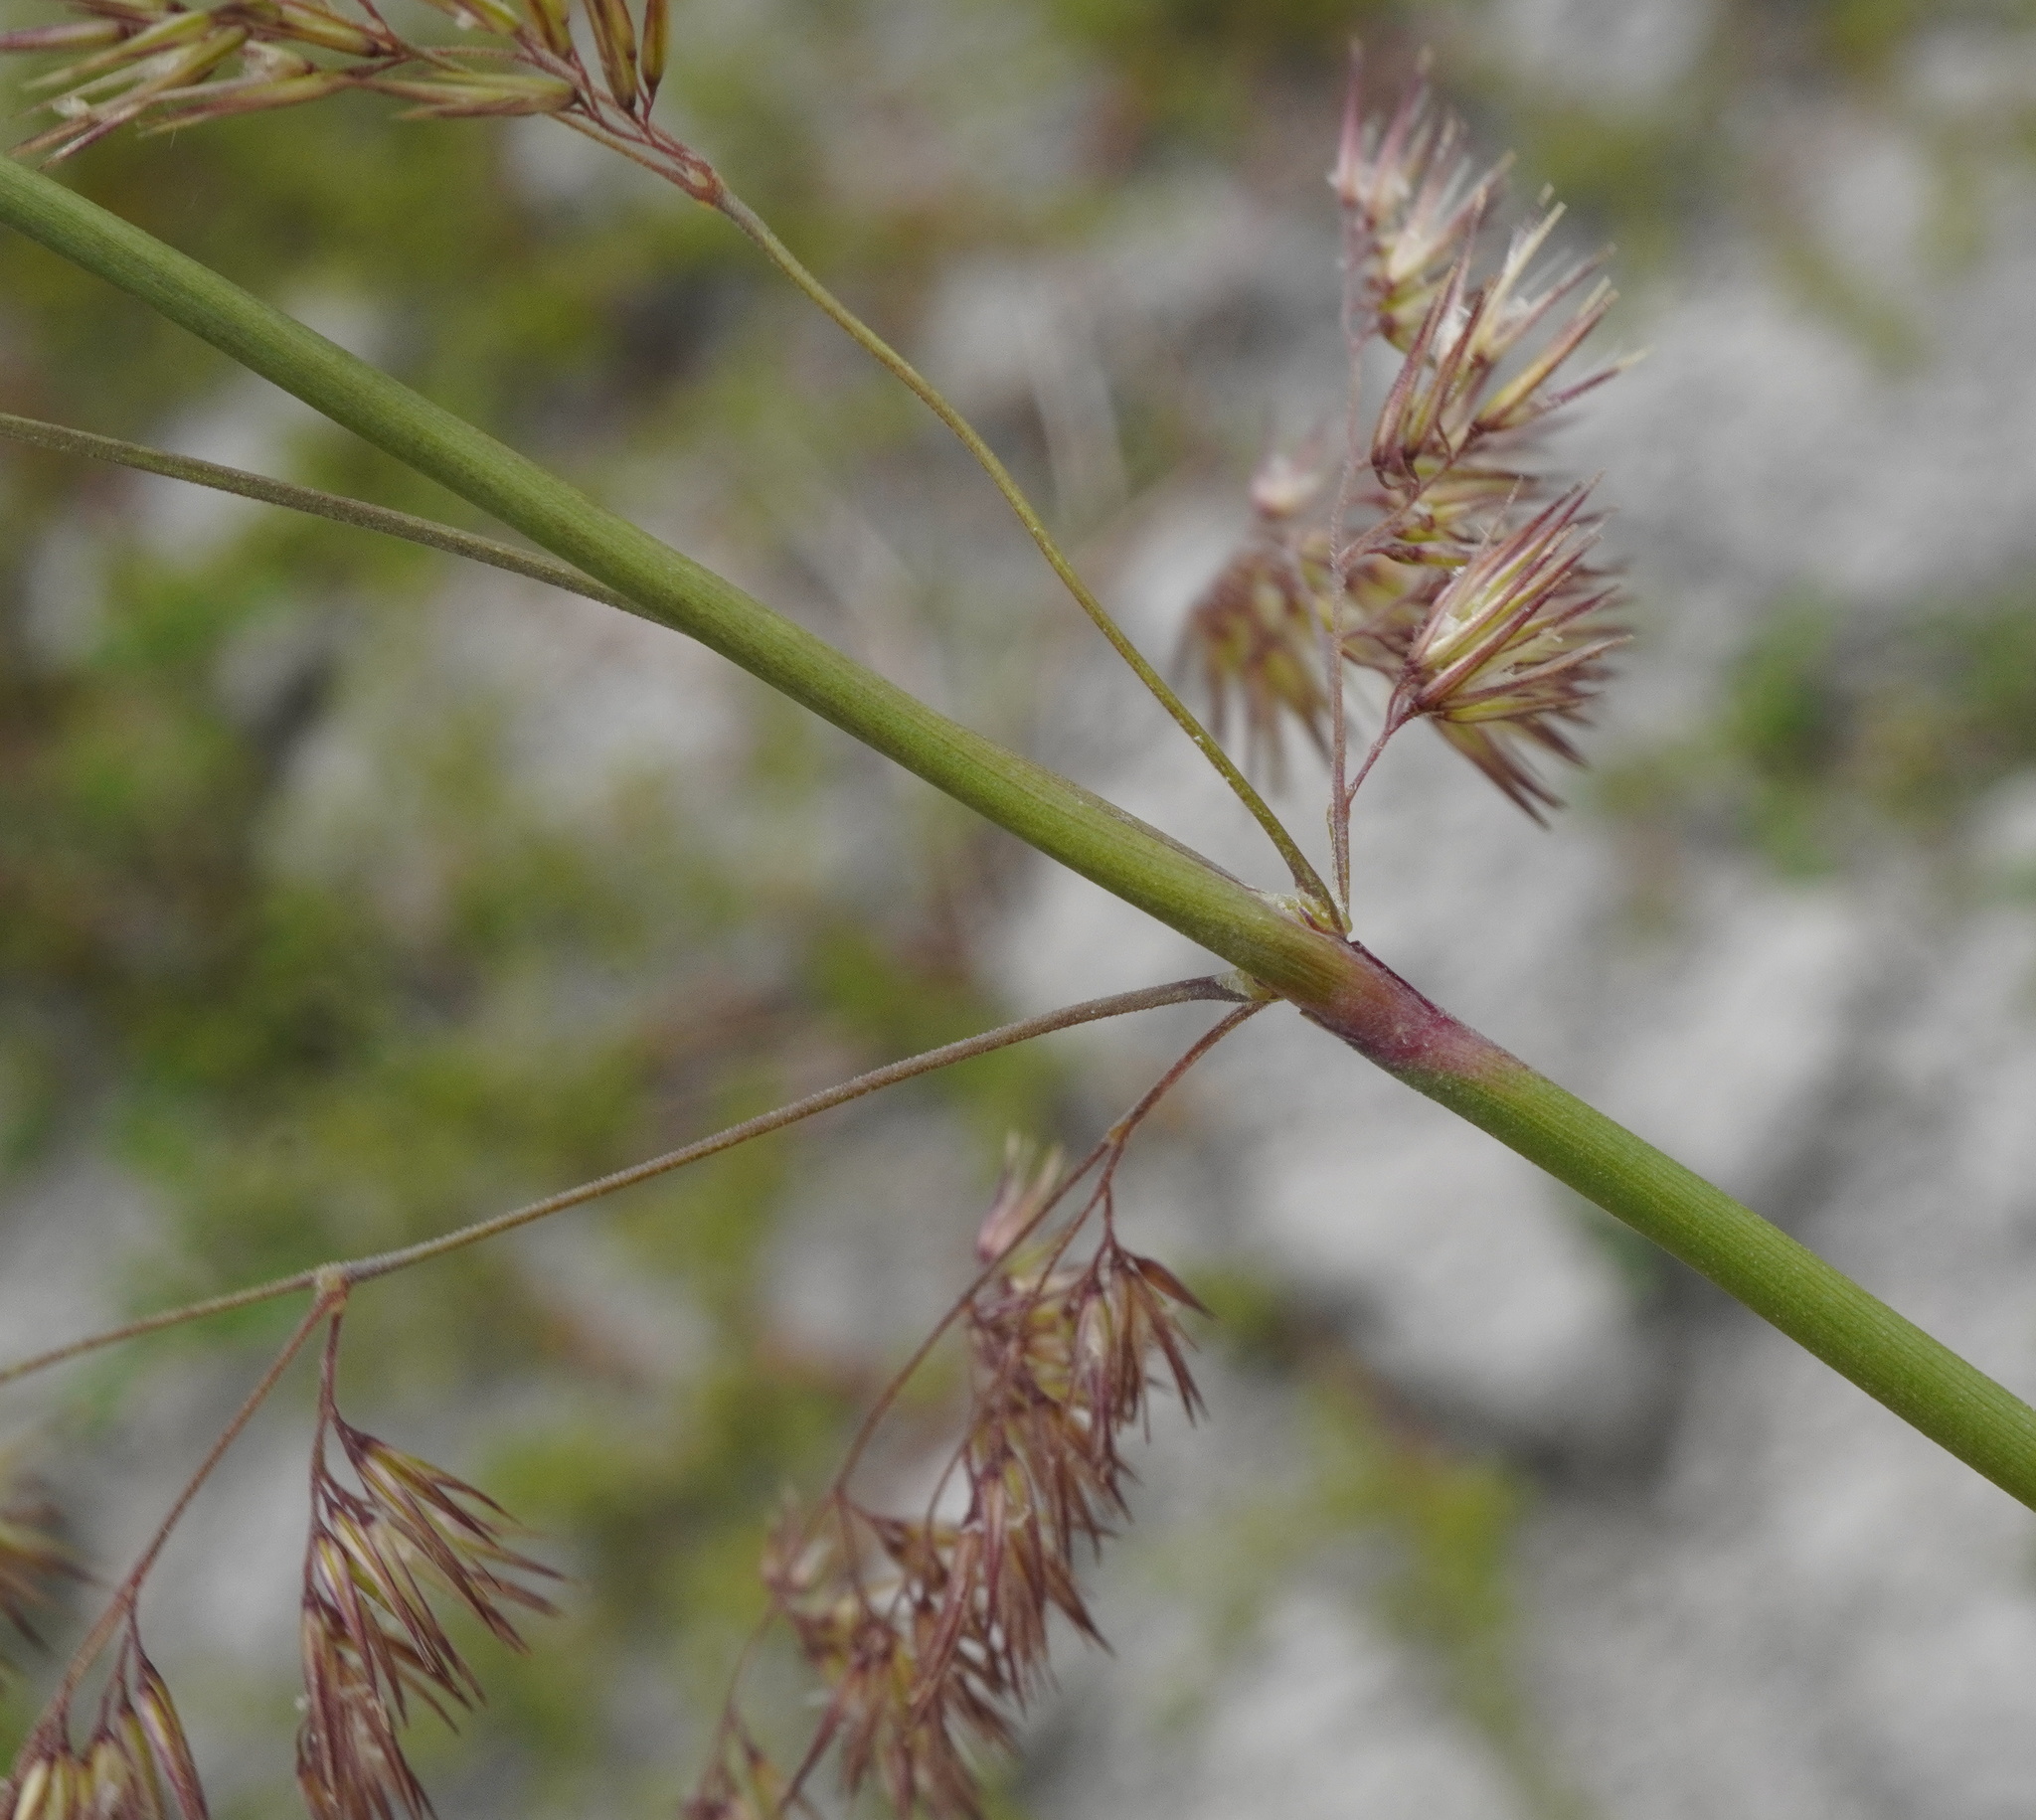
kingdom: Plantae
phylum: Tracheophyta
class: Liliopsida
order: Poales
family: Poaceae
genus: Calamagrostis
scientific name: Calamagrostis epigejos
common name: Wood small-reed
